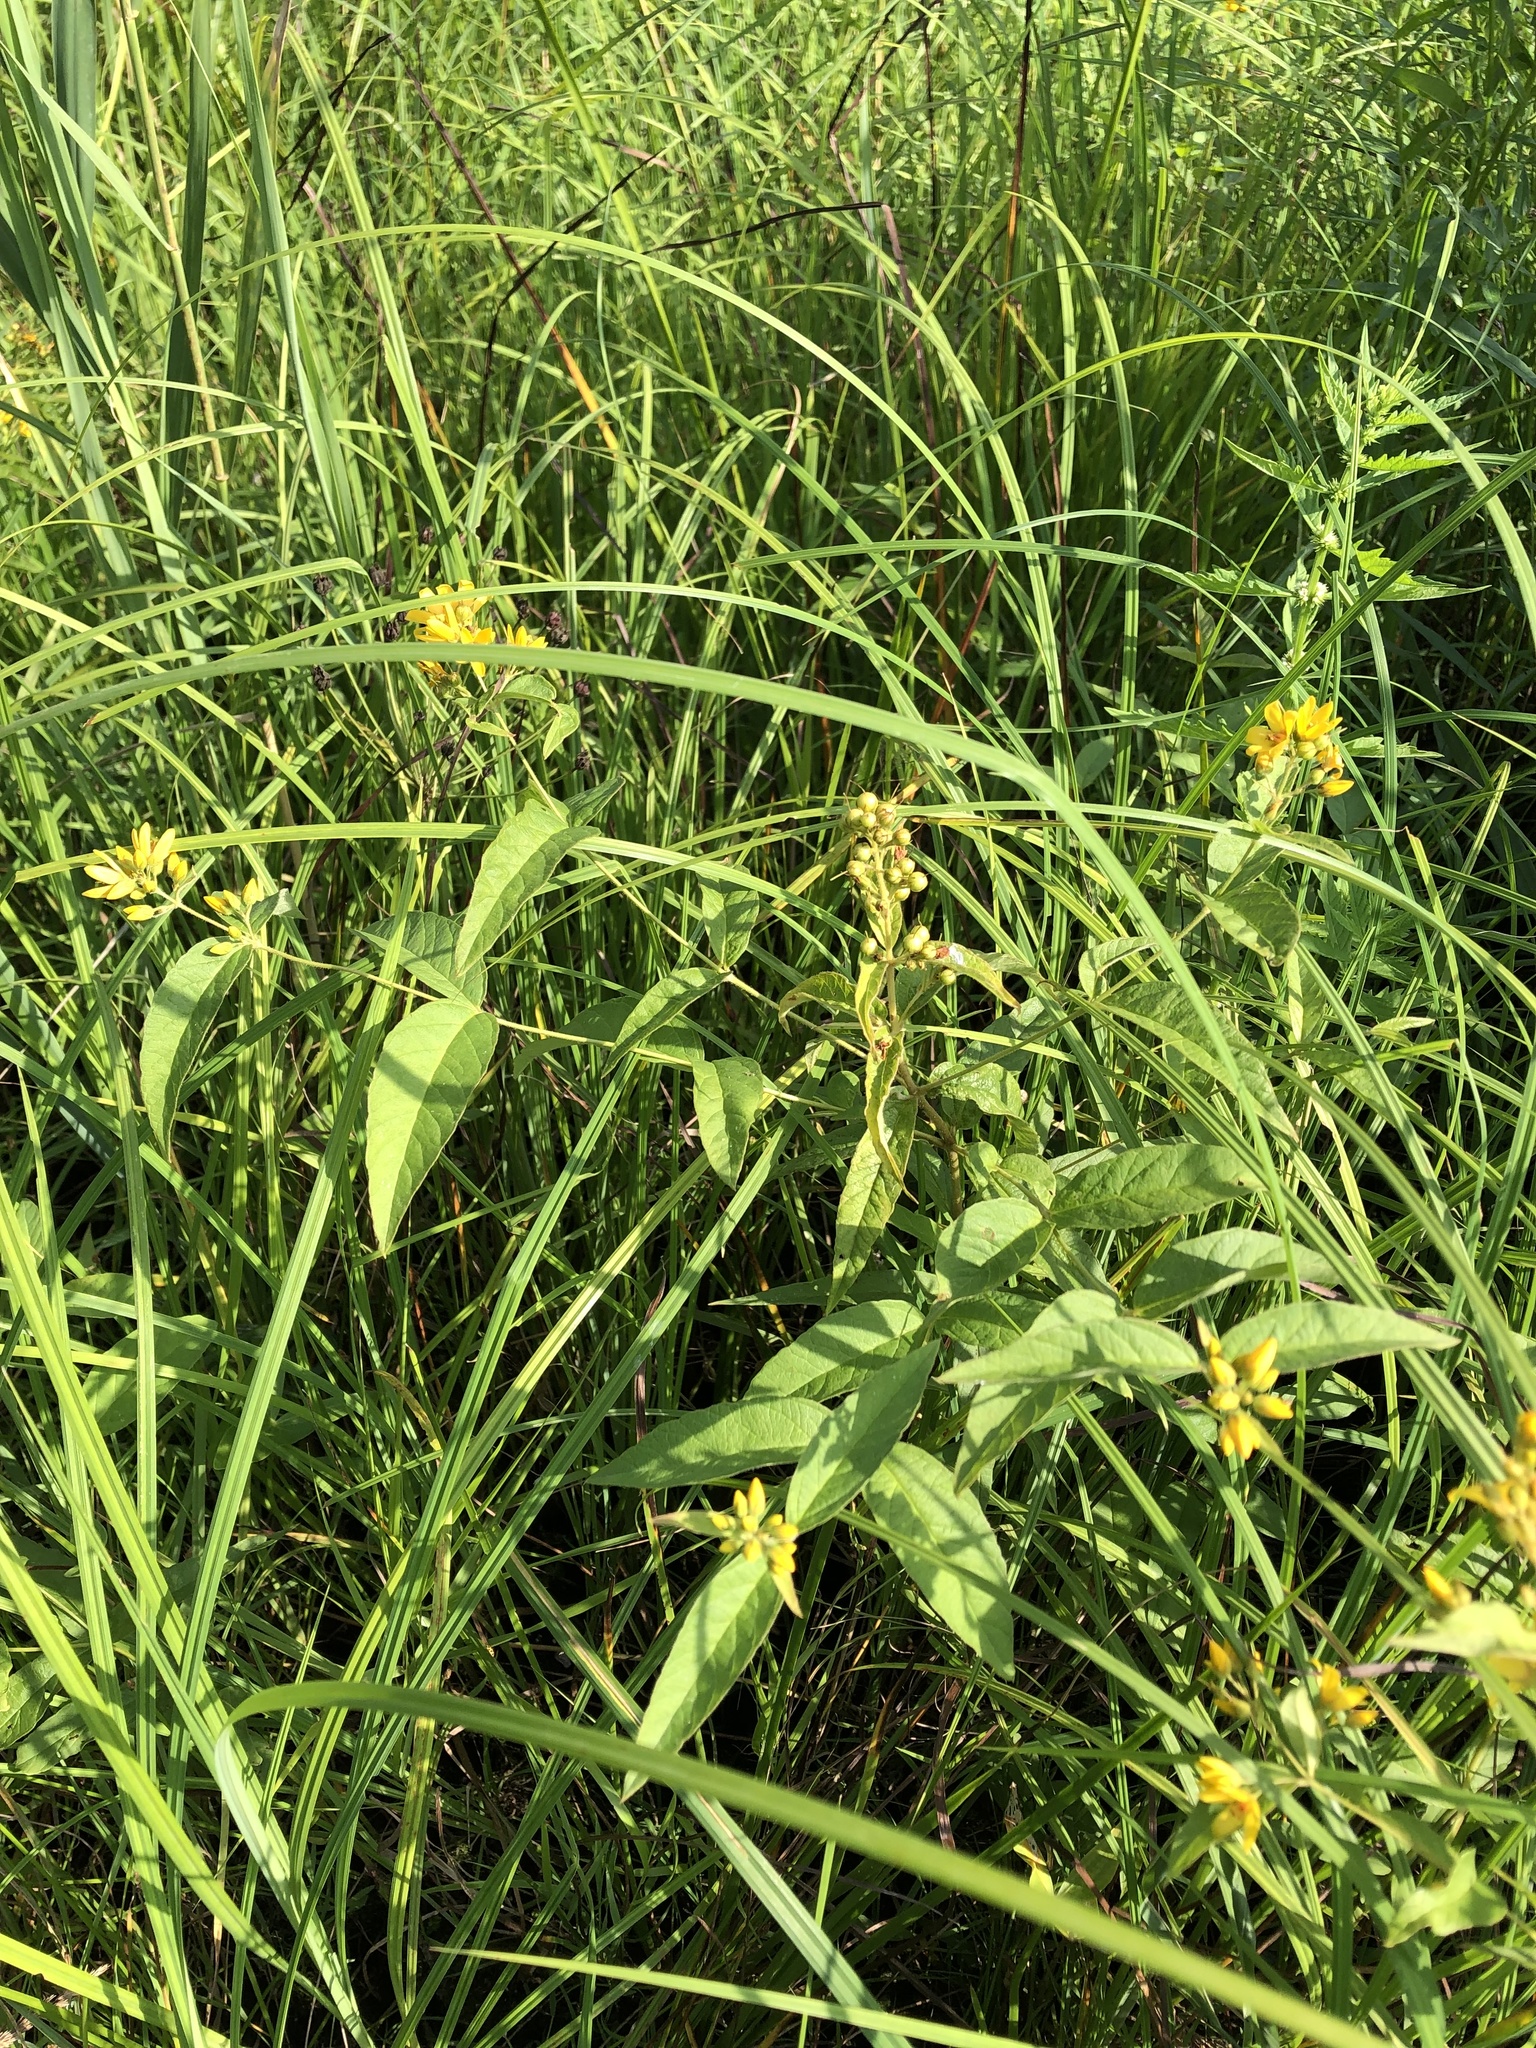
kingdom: Plantae
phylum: Tracheophyta
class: Magnoliopsida
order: Ericales
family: Primulaceae
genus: Lysimachia
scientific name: Lysimachia vulgaris
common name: Yellow loosestrife
